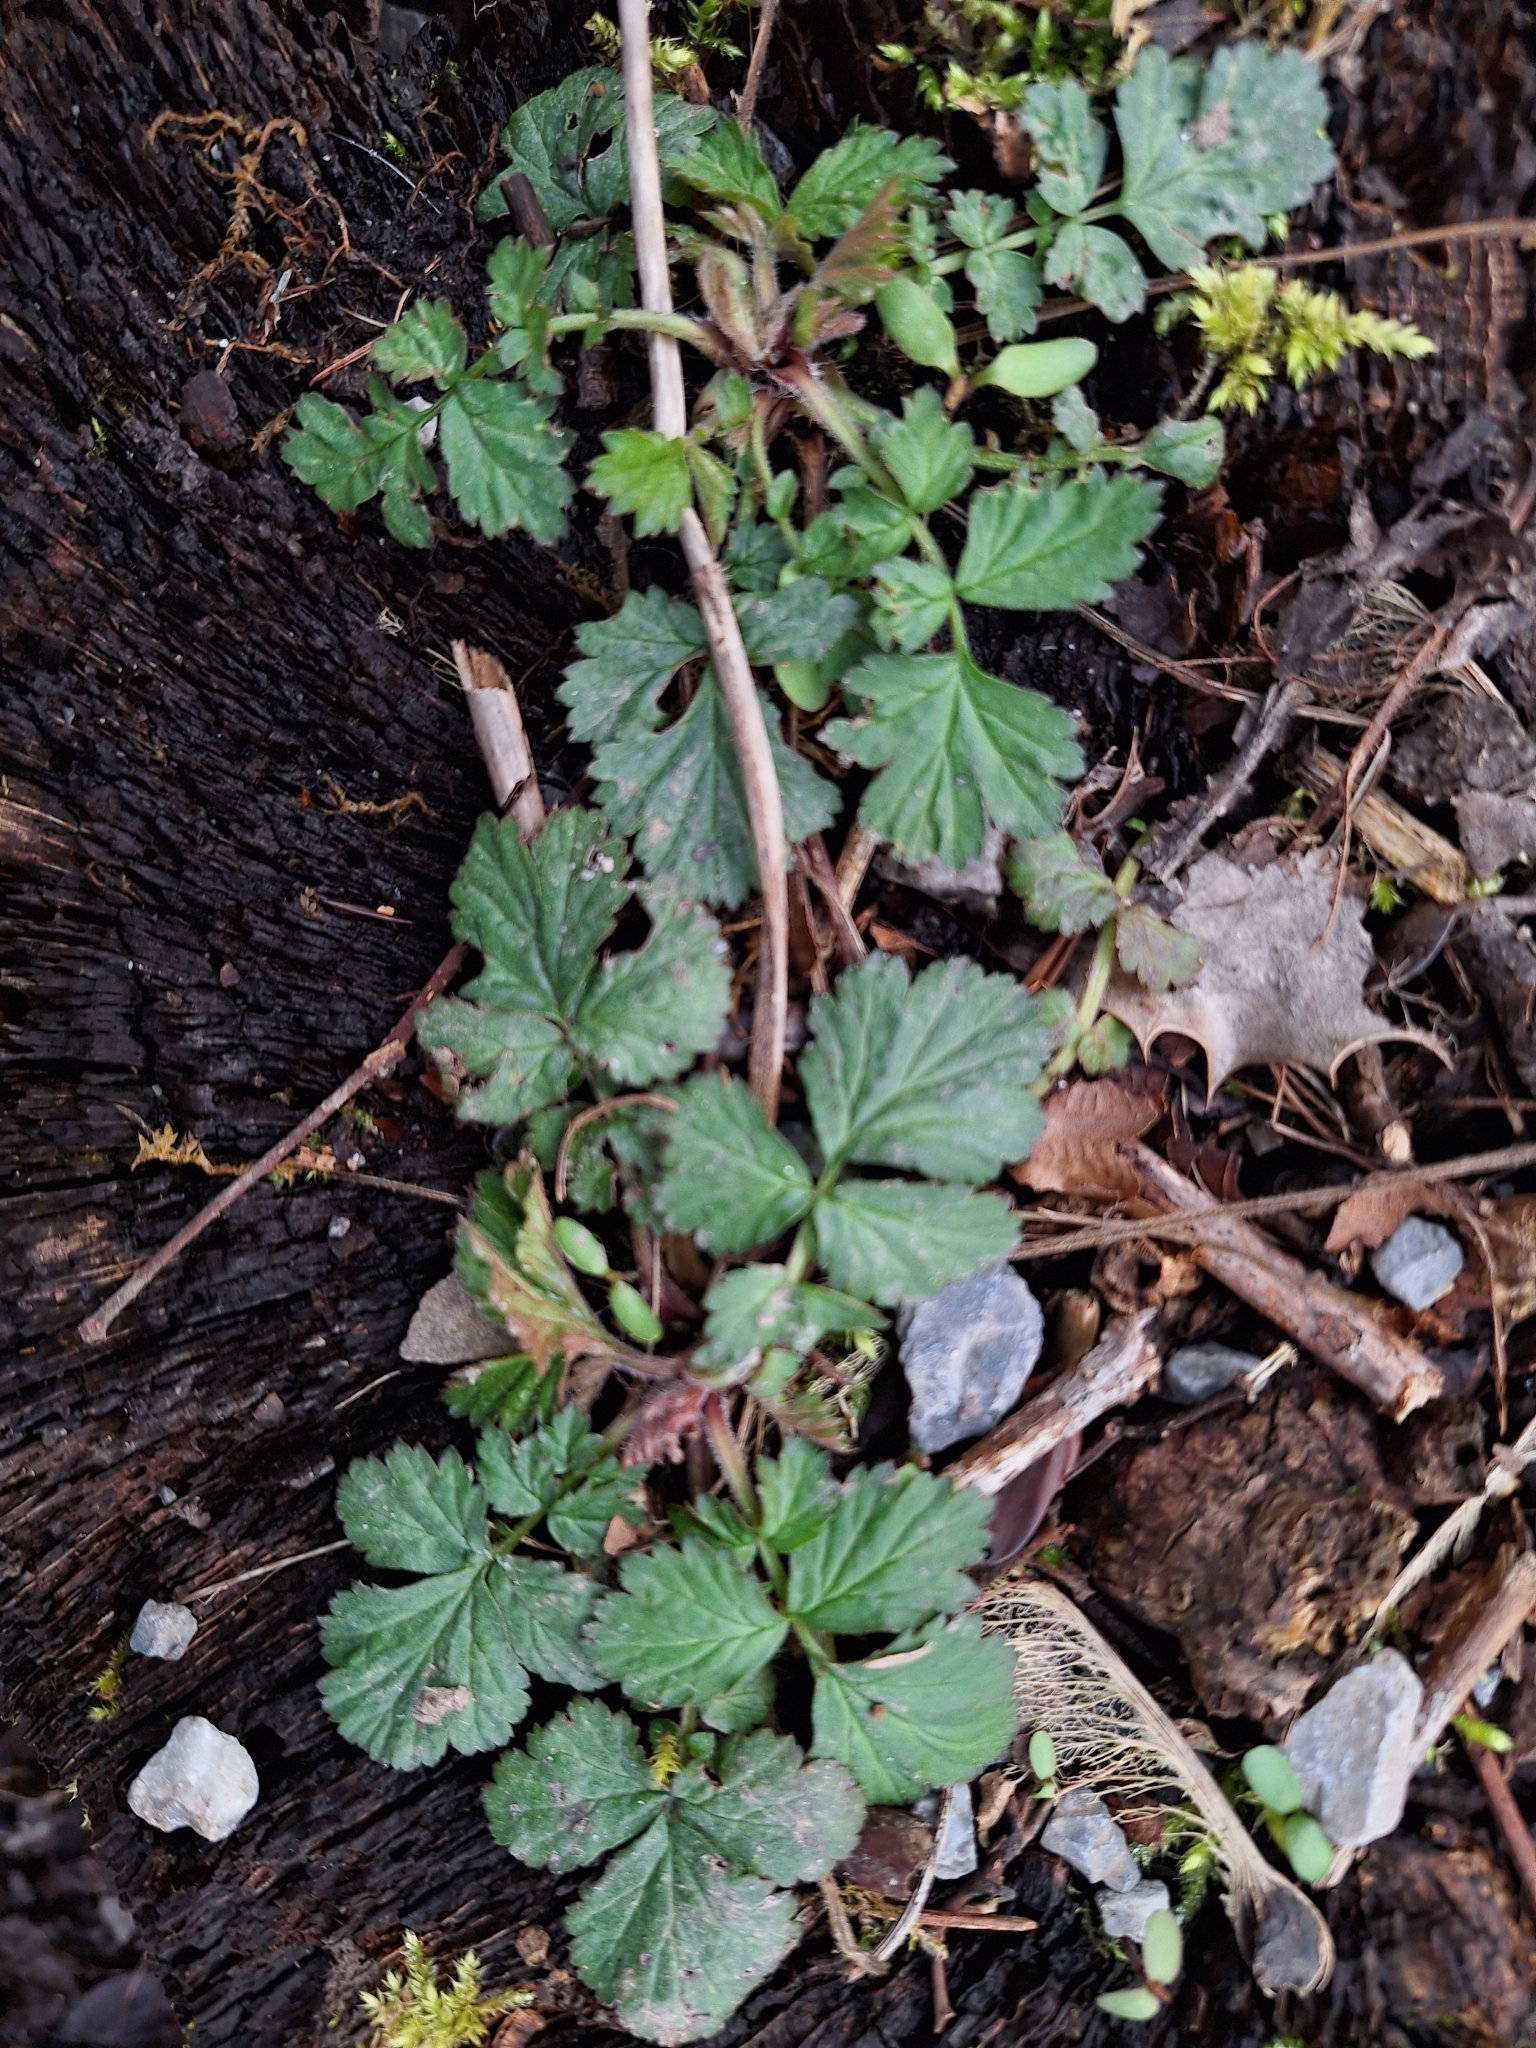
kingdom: Plantae
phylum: Tracheophyta
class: Magnoliopsida
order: Rosales
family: Rosaceae
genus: Geum
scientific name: Geum urbanum
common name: Wood avens
